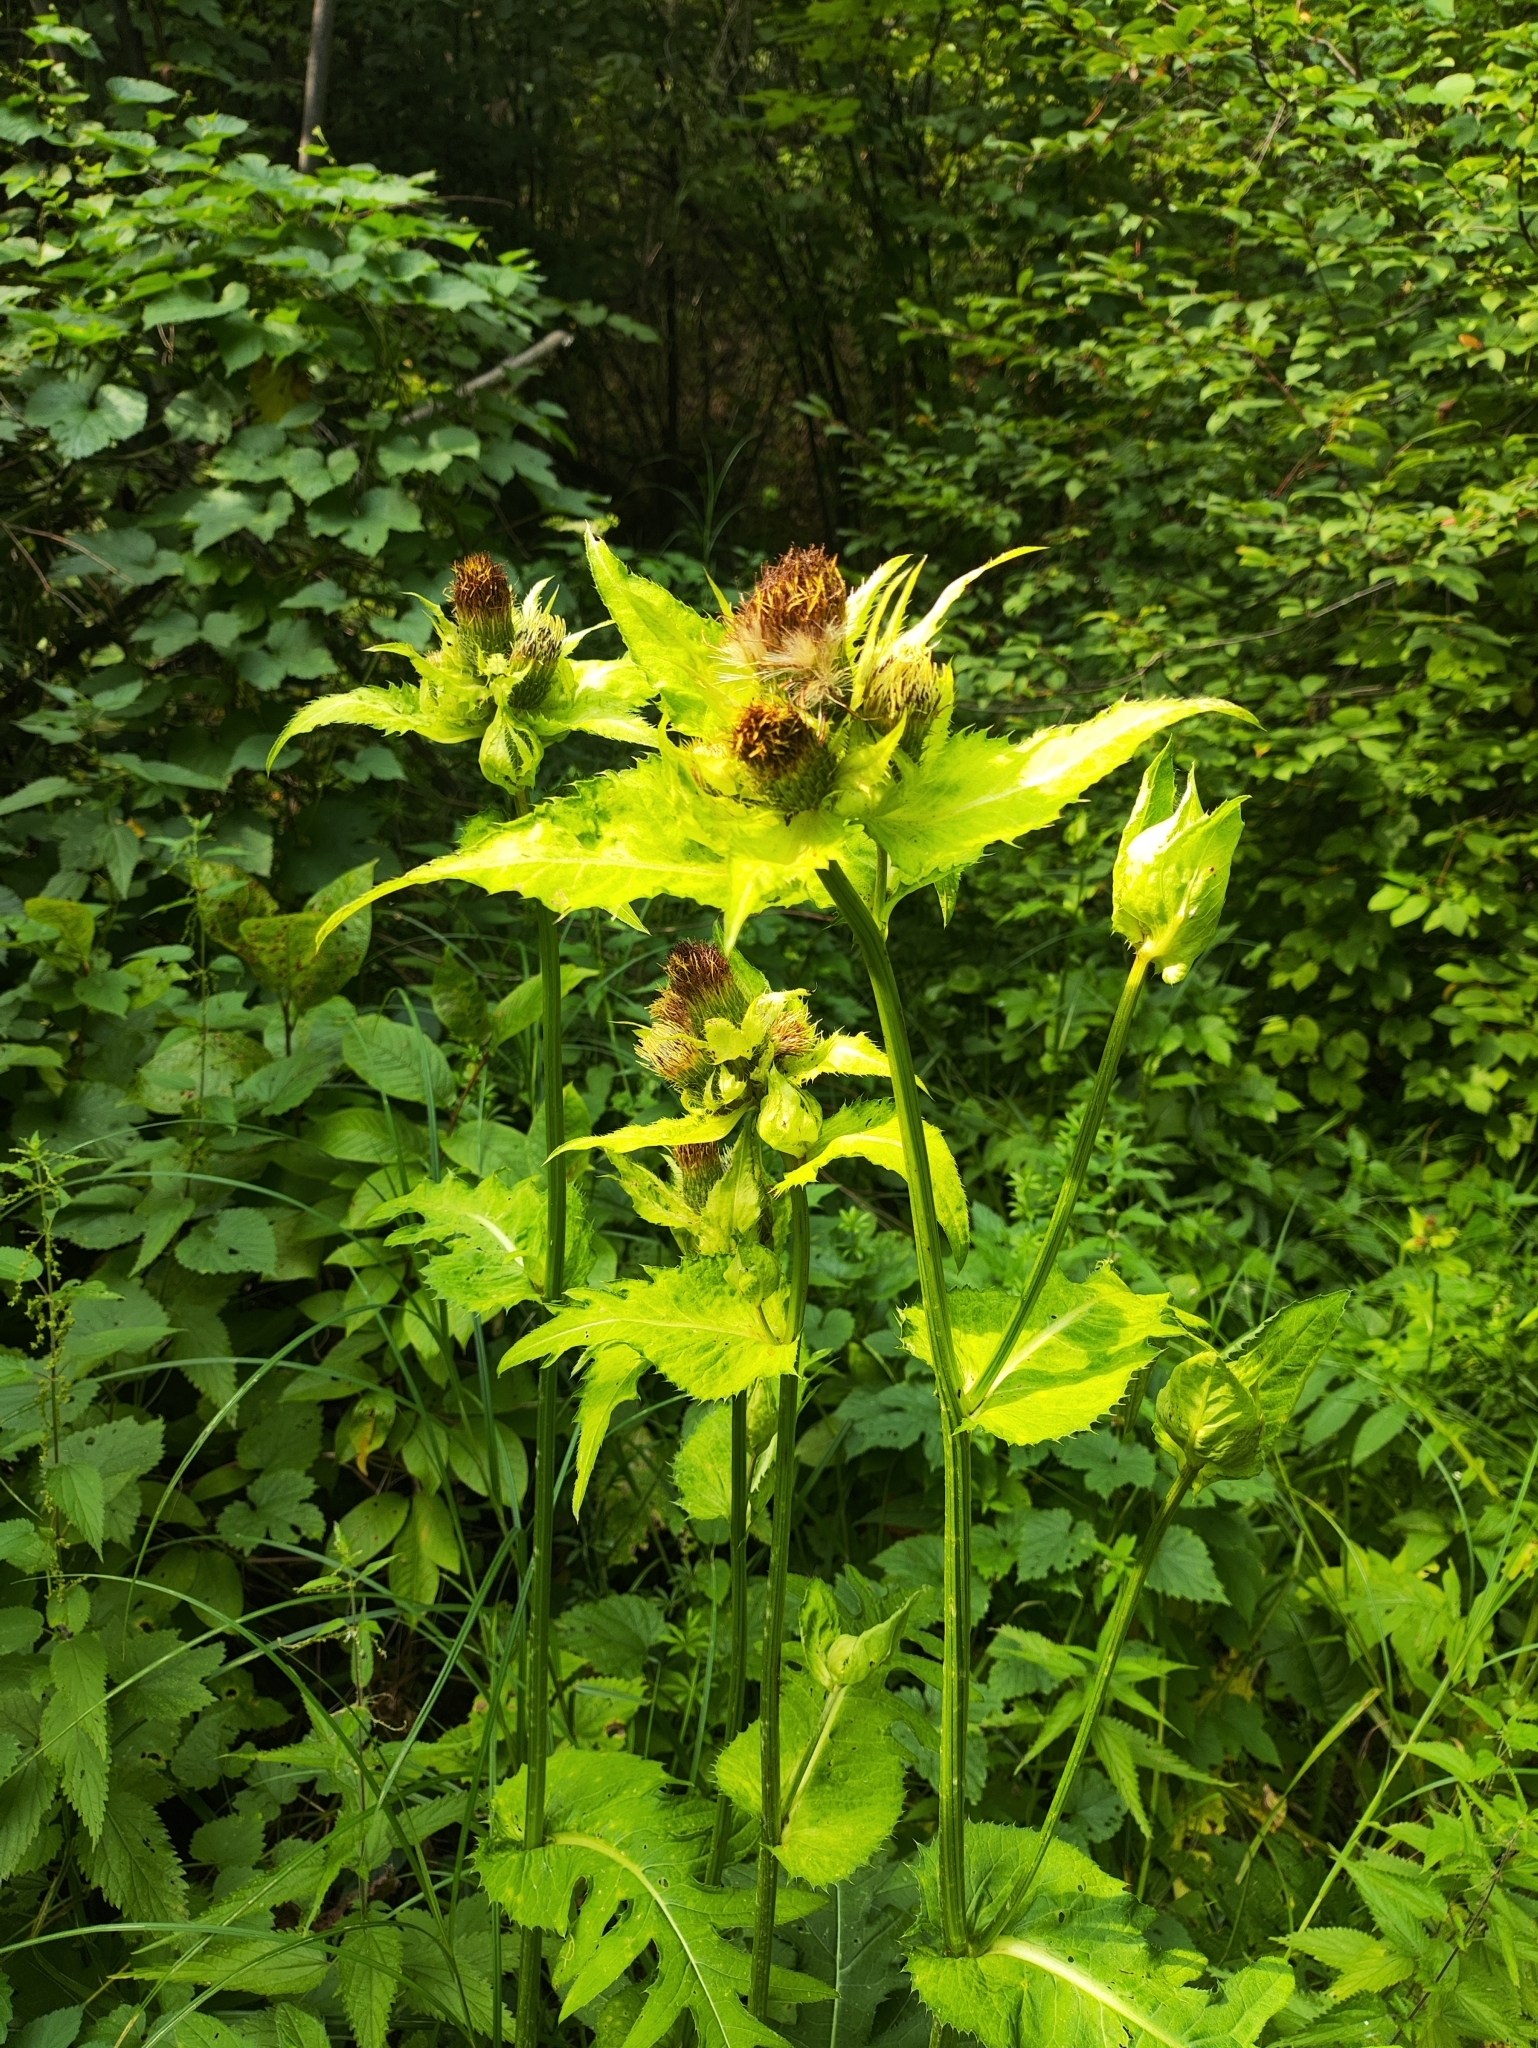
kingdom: Plantae
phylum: Tracheophyta
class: Magnoliopsida
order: Asterales
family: Asteraceae
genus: Cirsium
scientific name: Cirsium oleraceum
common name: Cabbage thistle
